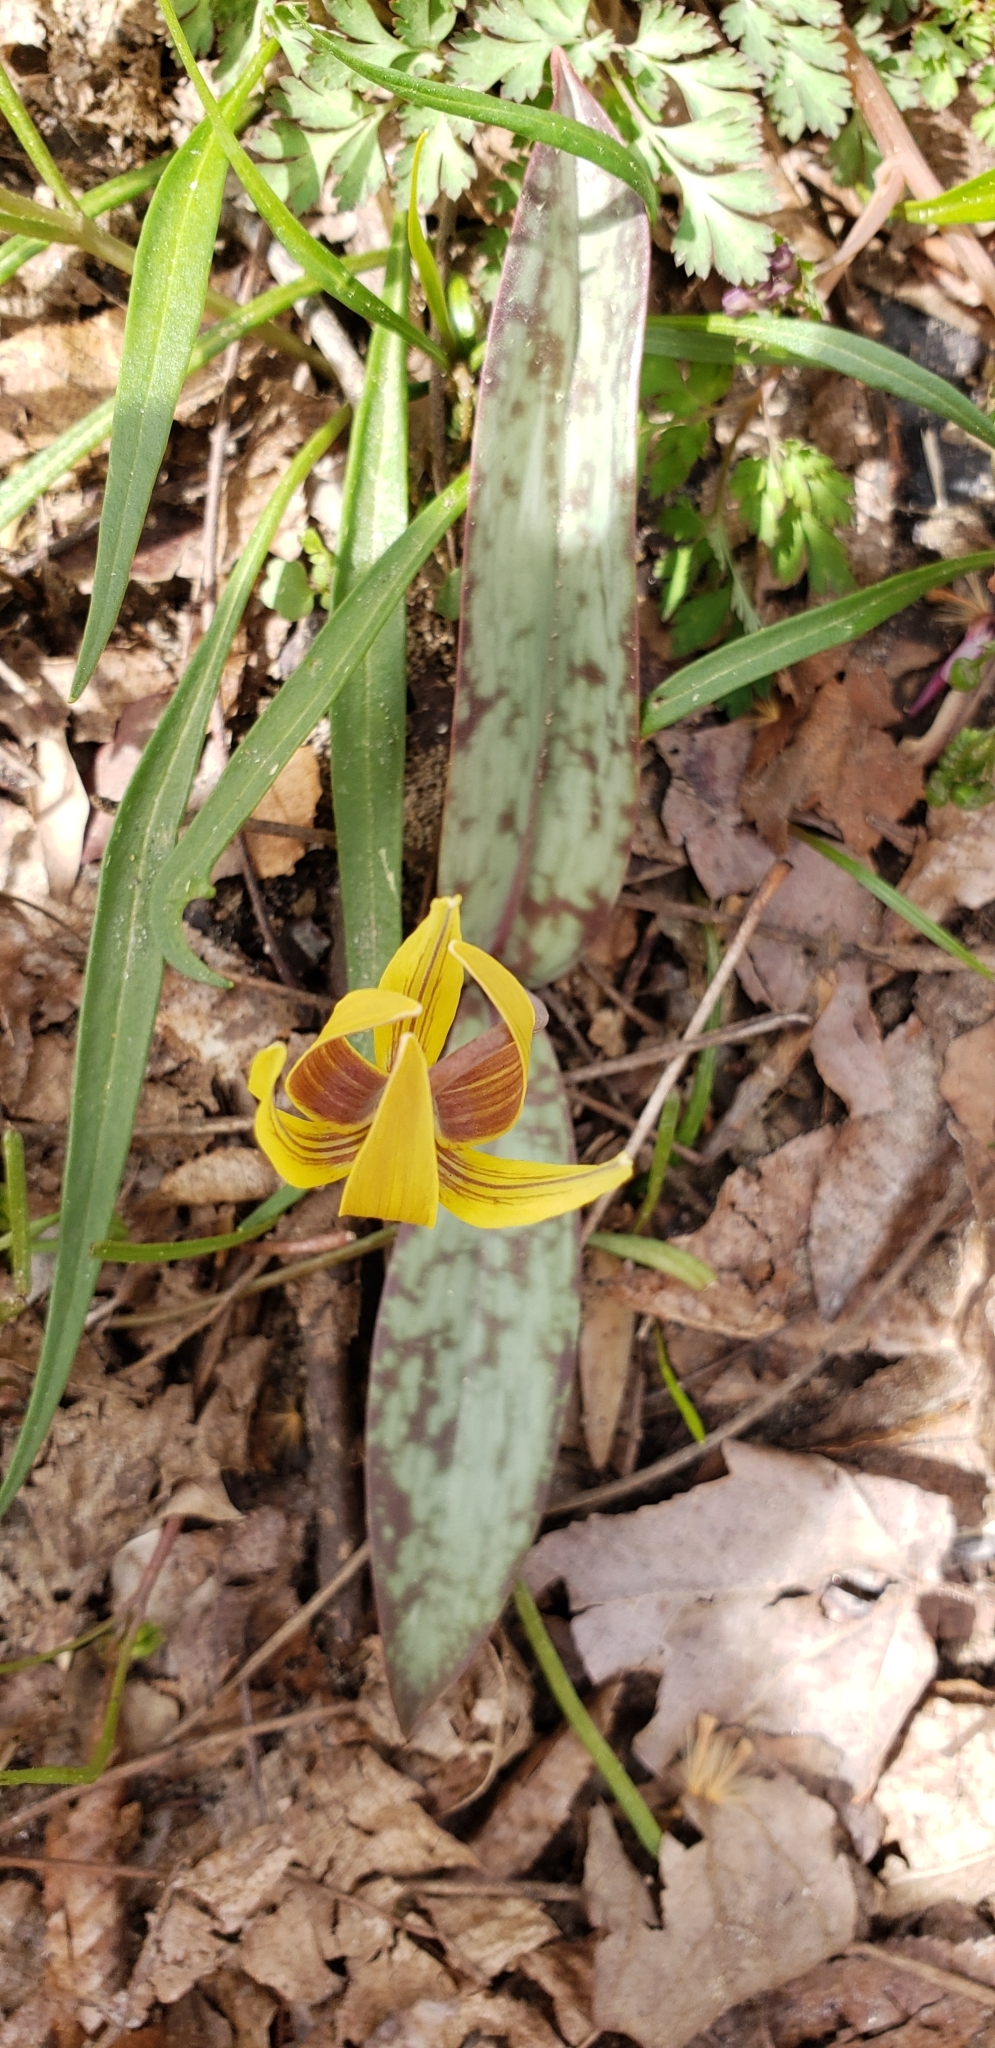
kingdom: Plantae
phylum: Tracheophyta
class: Liliopsida
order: Liliales
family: Liliaceae
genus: Erythronium
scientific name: Erythronium americanum
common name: Yellow adder's-tongue
